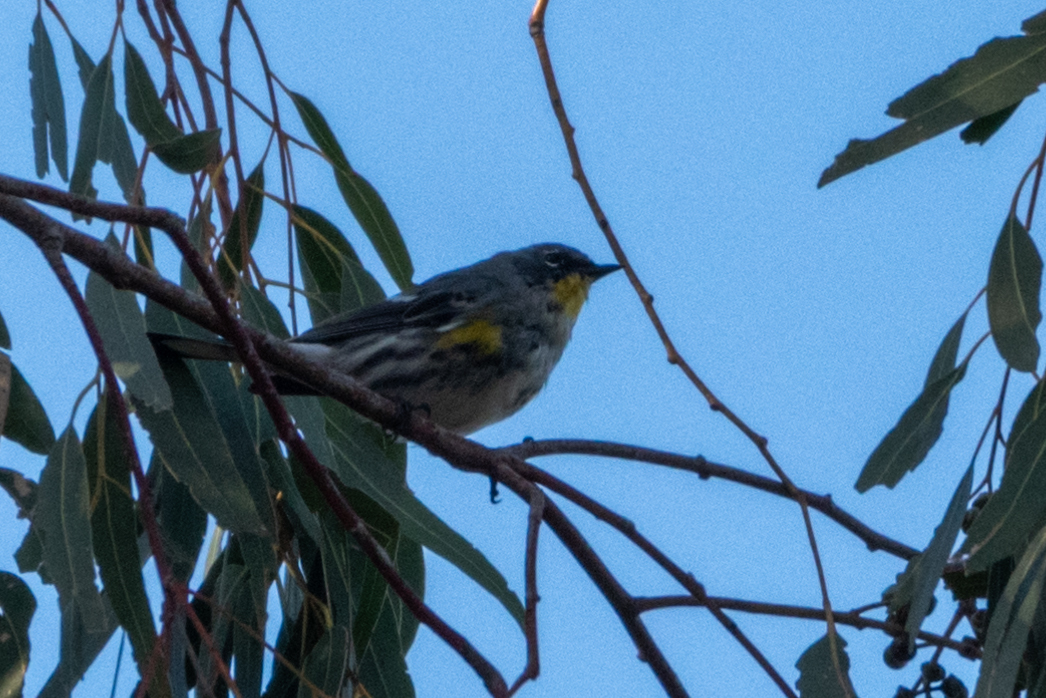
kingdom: Animalia
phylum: Chordata
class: Aves
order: Passeriformes
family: Parulidae
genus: Setophaga
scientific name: Setophaga coronata
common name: Myrtle warbler
